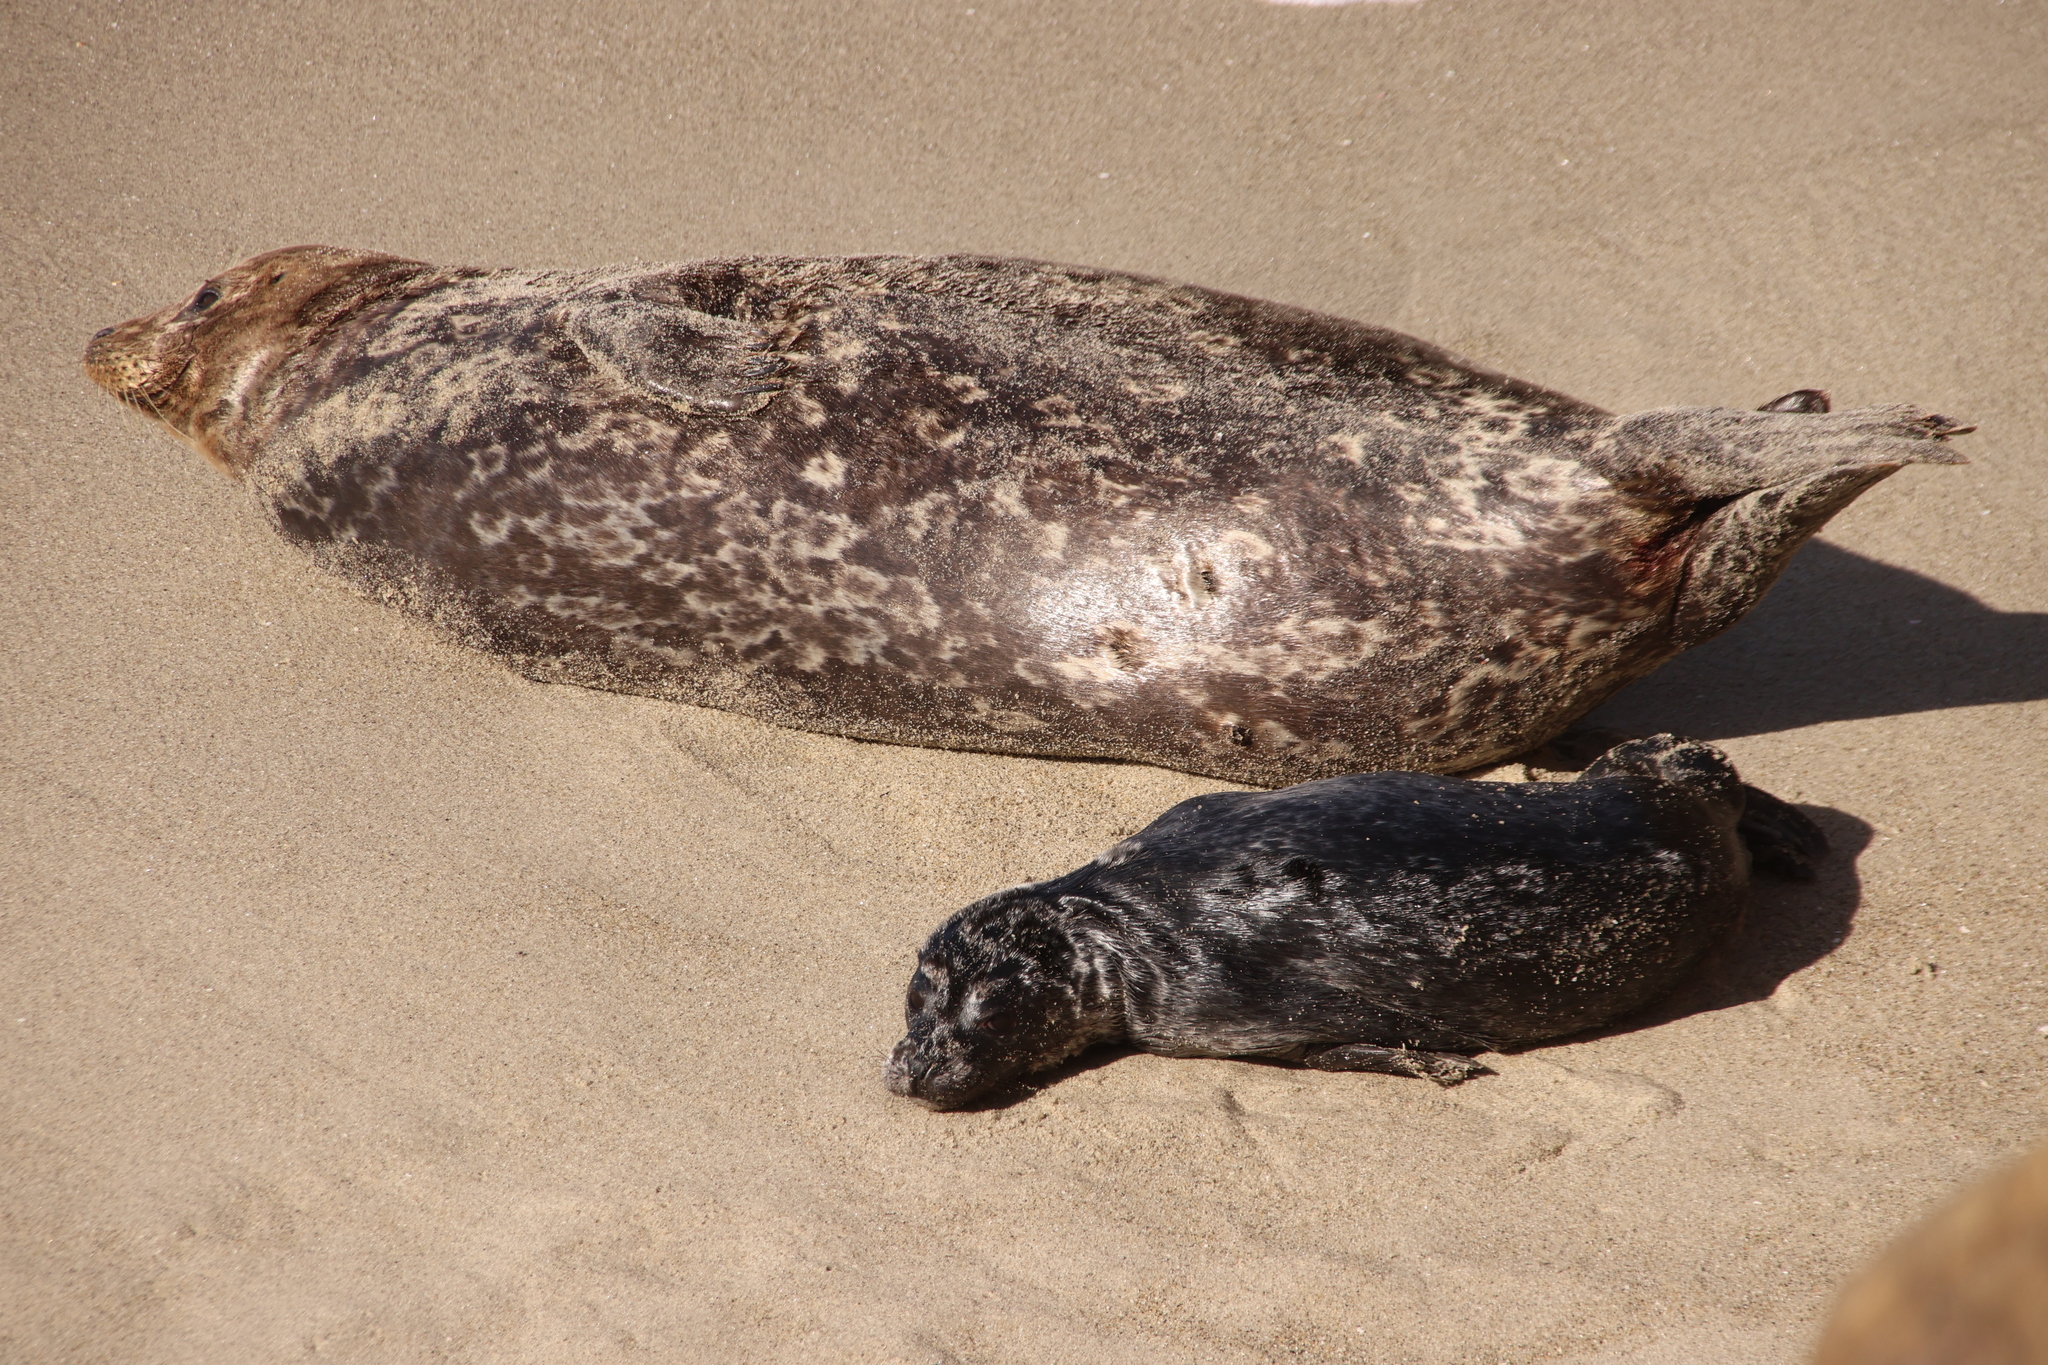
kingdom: Animalia
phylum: Chordata
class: Mammalia
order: Carnivora
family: Phocidae
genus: Phoca
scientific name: Phoca vitulina
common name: Harbor seal
